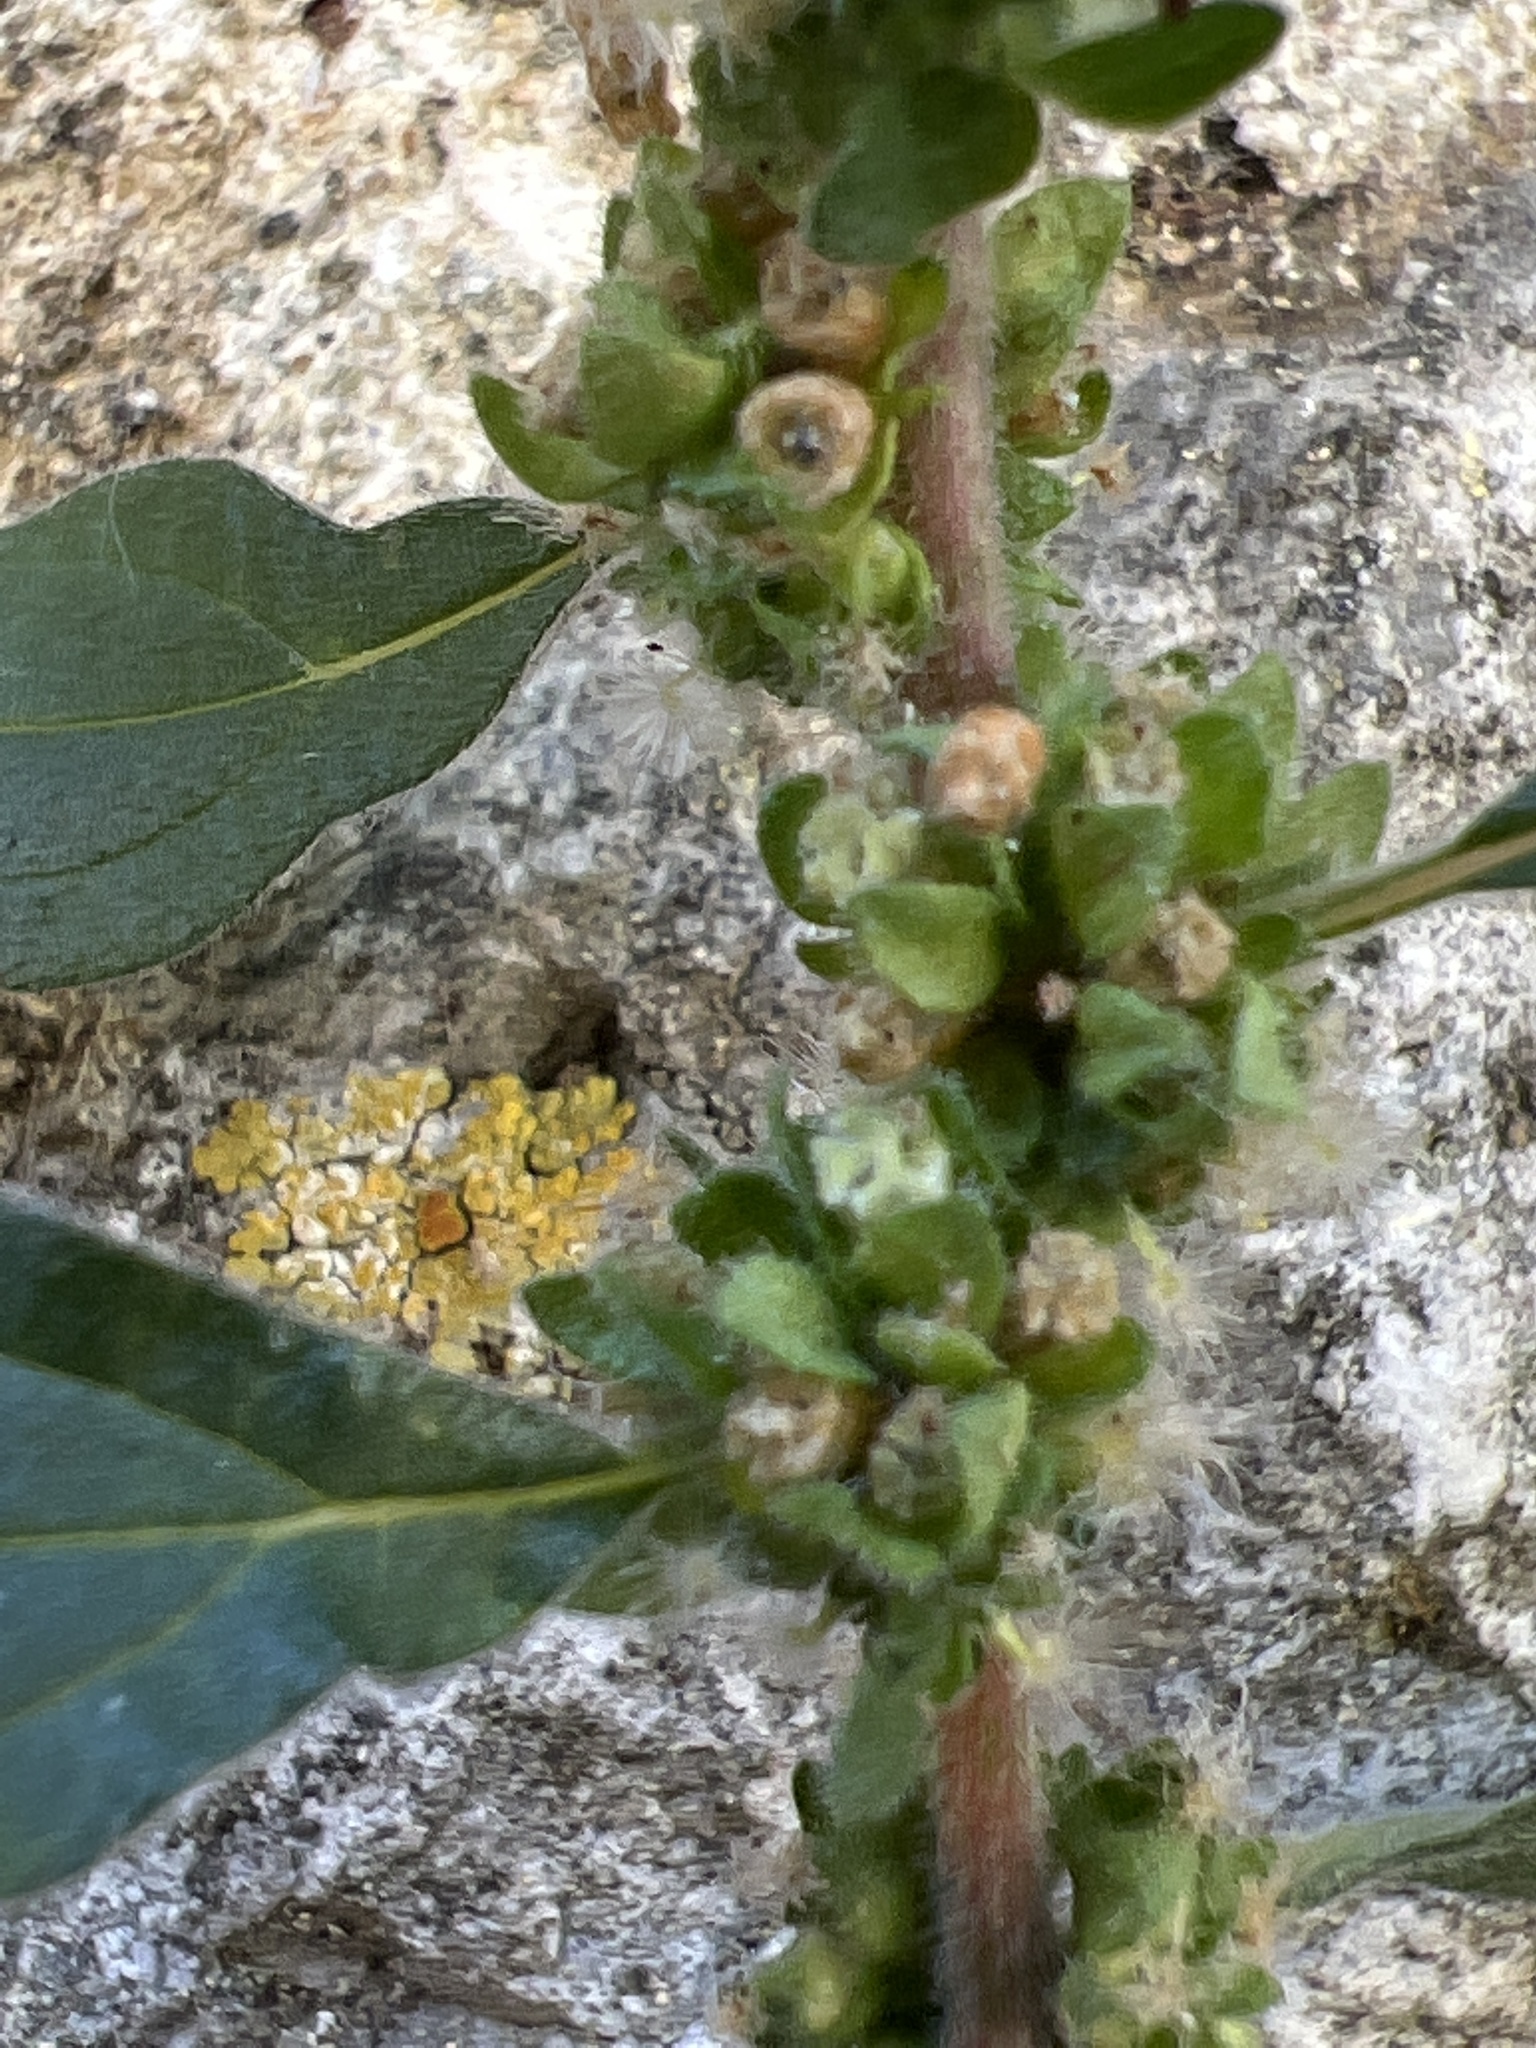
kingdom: Plantae
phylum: Tracheophyta
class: Magnoliopsida
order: Rosales
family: Urticaceae
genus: Parietaria
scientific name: Parietaria judaica
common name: Pellitory-of-the-wall
